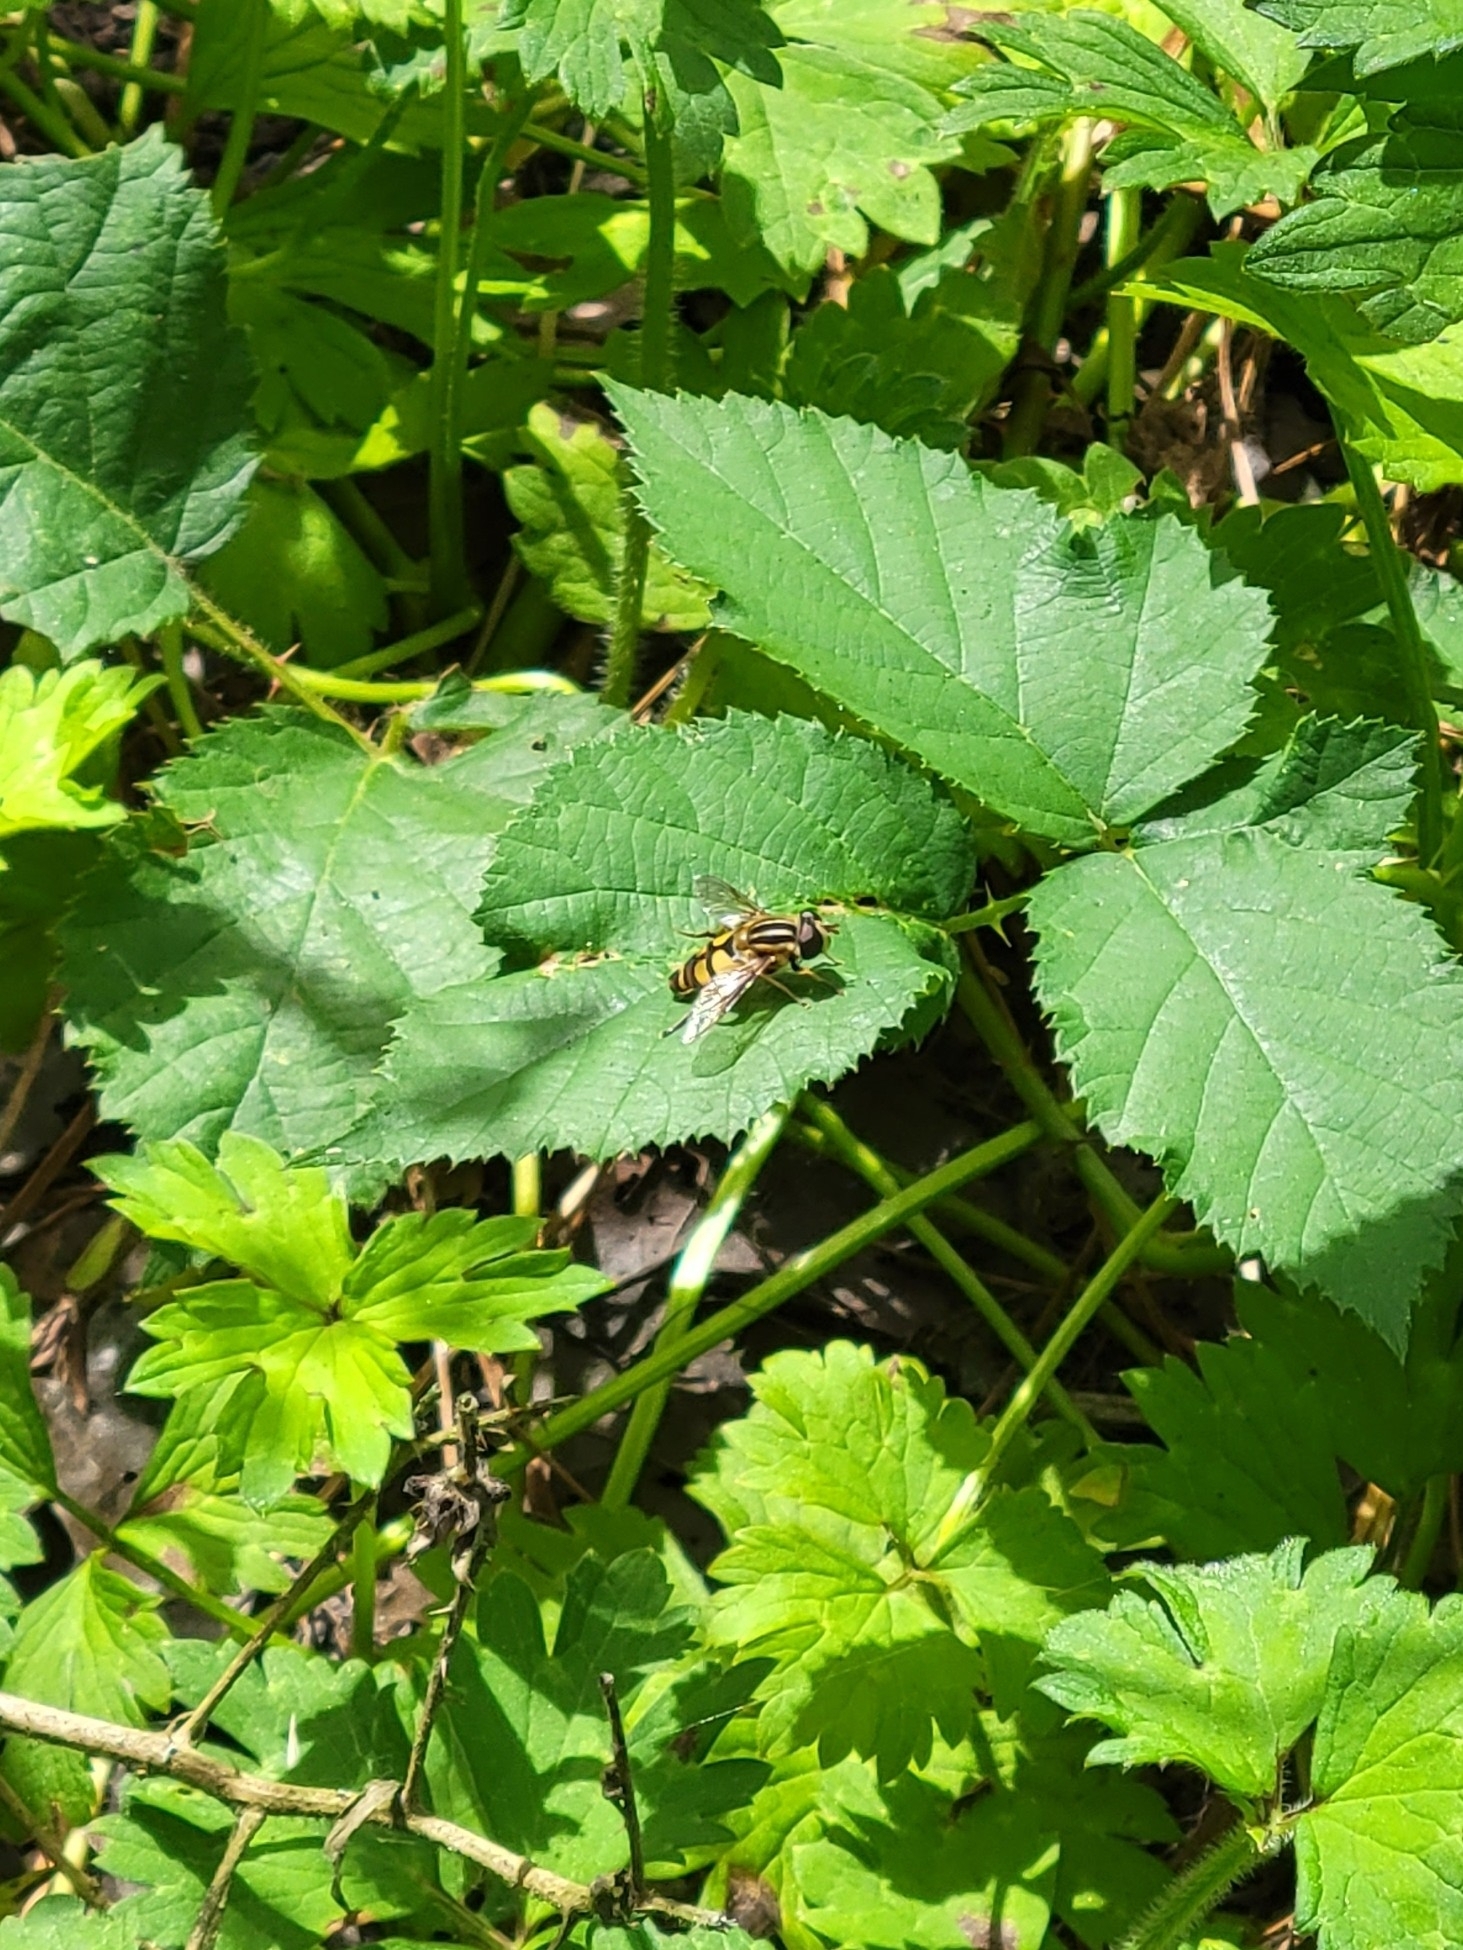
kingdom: Animalia
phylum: Arthropoda
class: Insecta
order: Diptera
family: Syrphidae
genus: Helophilus
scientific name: Helophilus fasciatus
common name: Narrow-headed marsh fly
